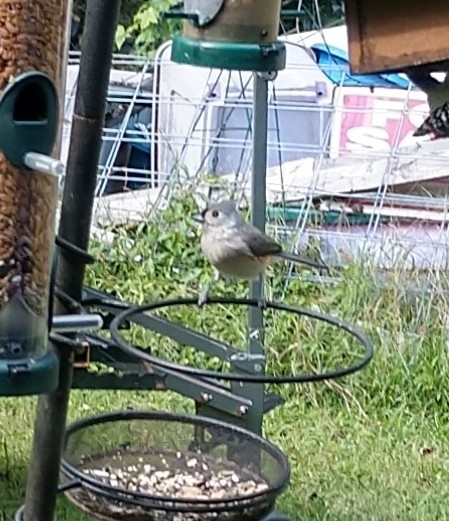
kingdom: Animalia
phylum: Chordata
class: Aves
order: Passeriformes
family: Paridae
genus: Baeolophus
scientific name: Baeolophus bicolor
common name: Tufted titmouse
